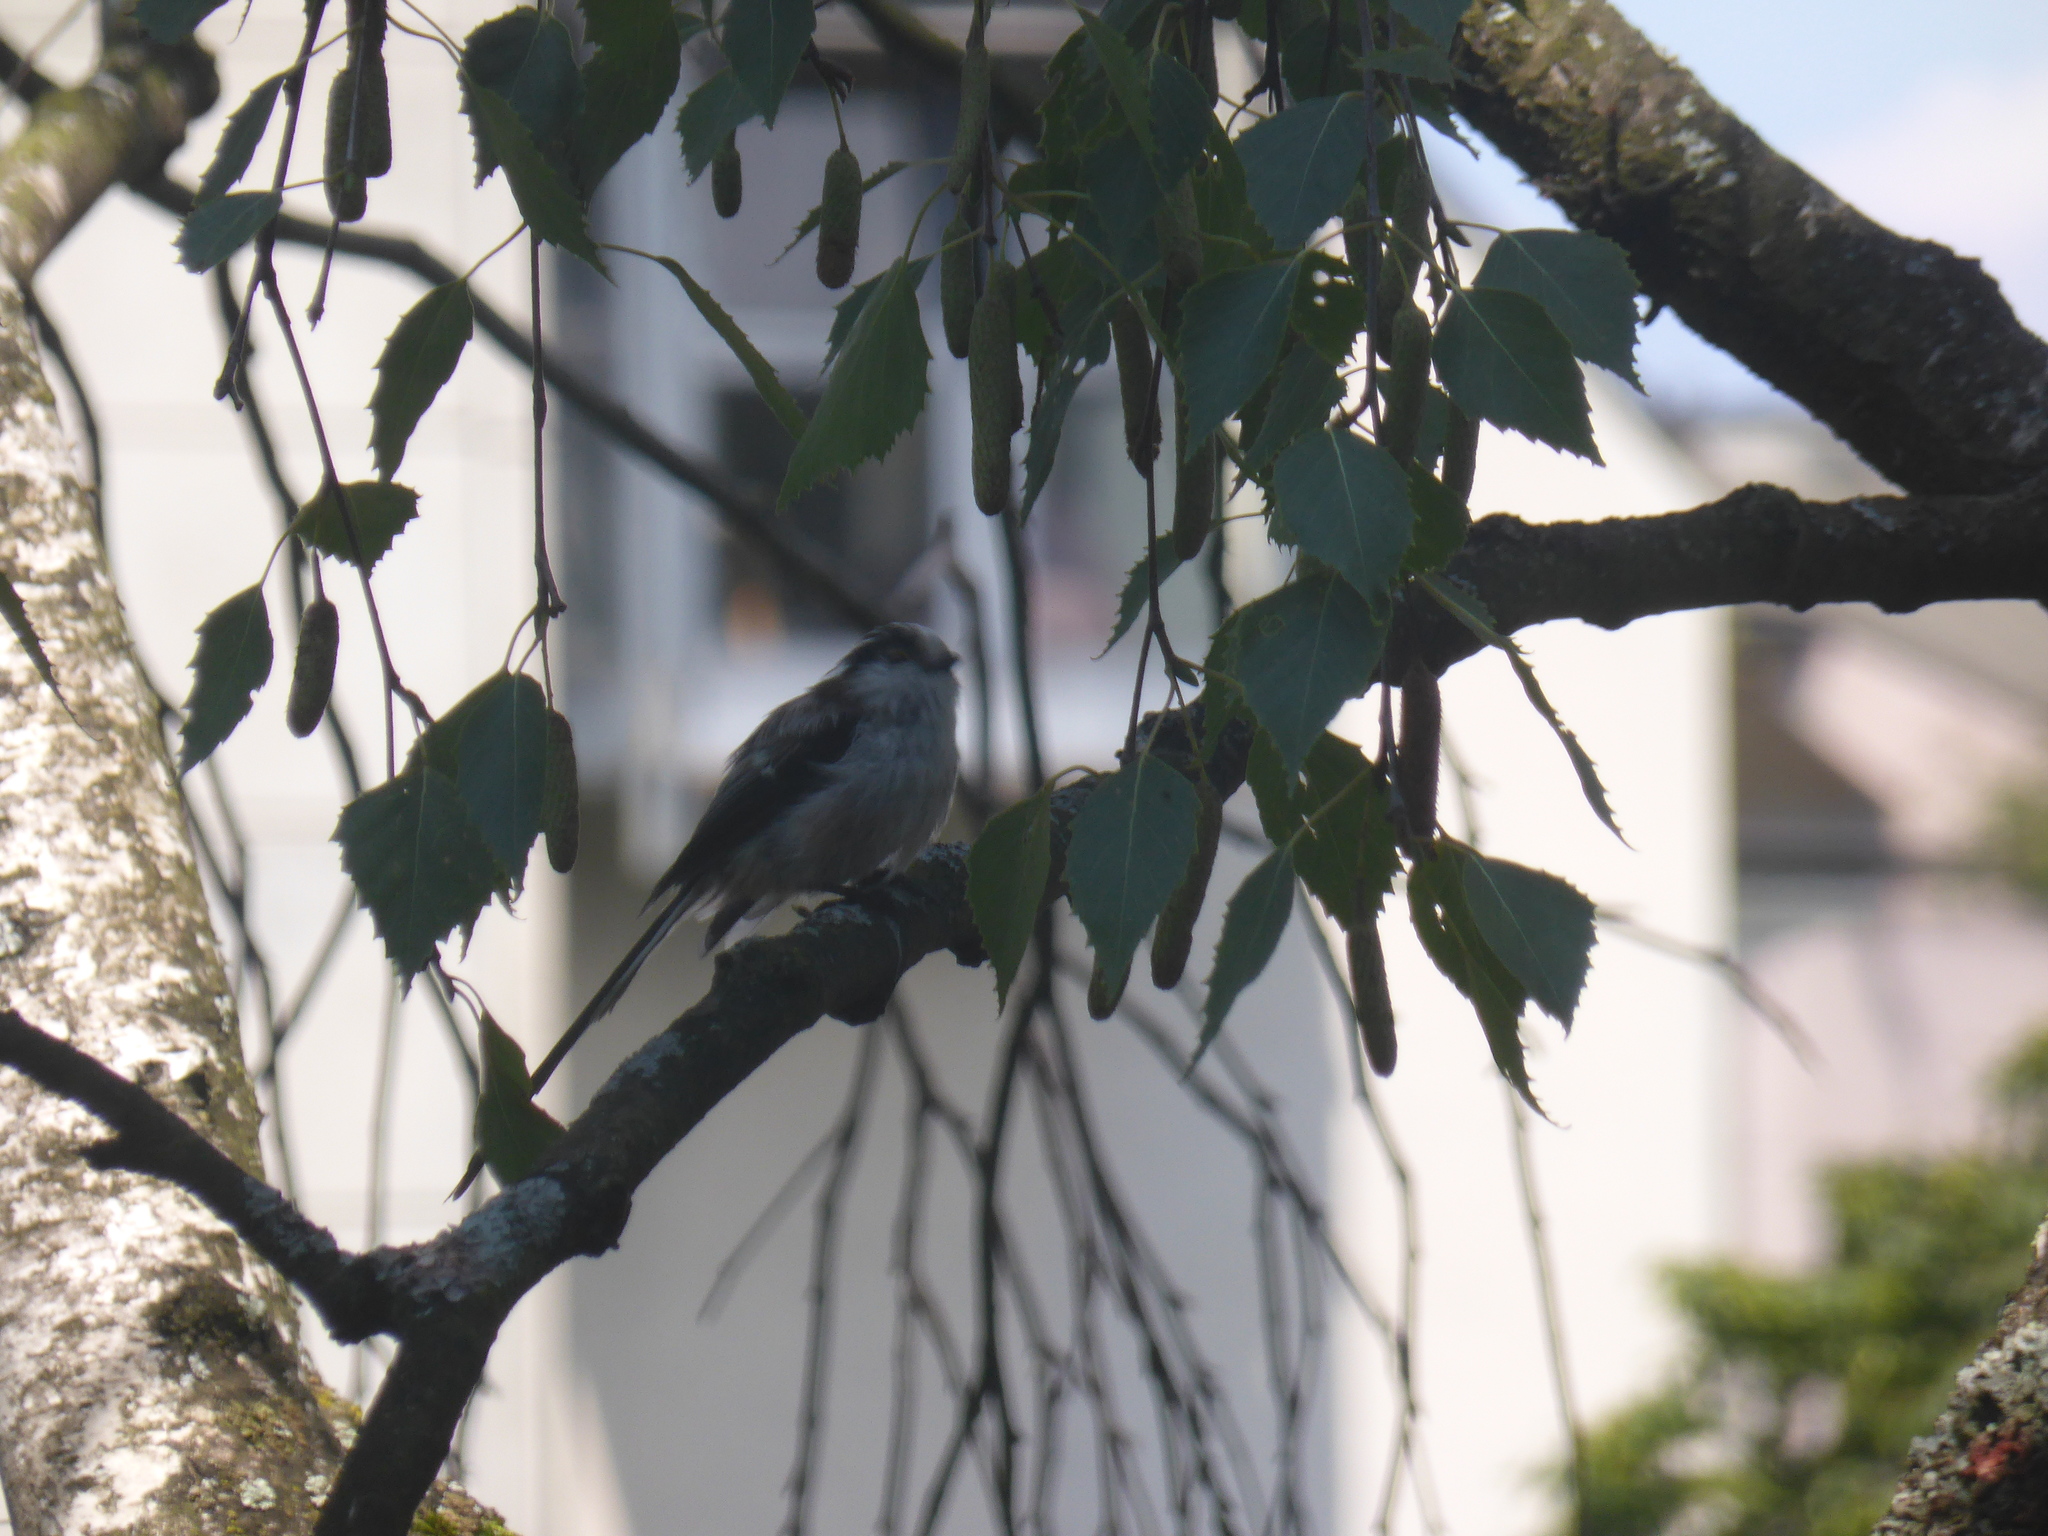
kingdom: Animalia
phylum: Chordata
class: Aves
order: Passeriformes
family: Aegithalidae
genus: Aegithalos
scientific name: Aegithalos caudatus
